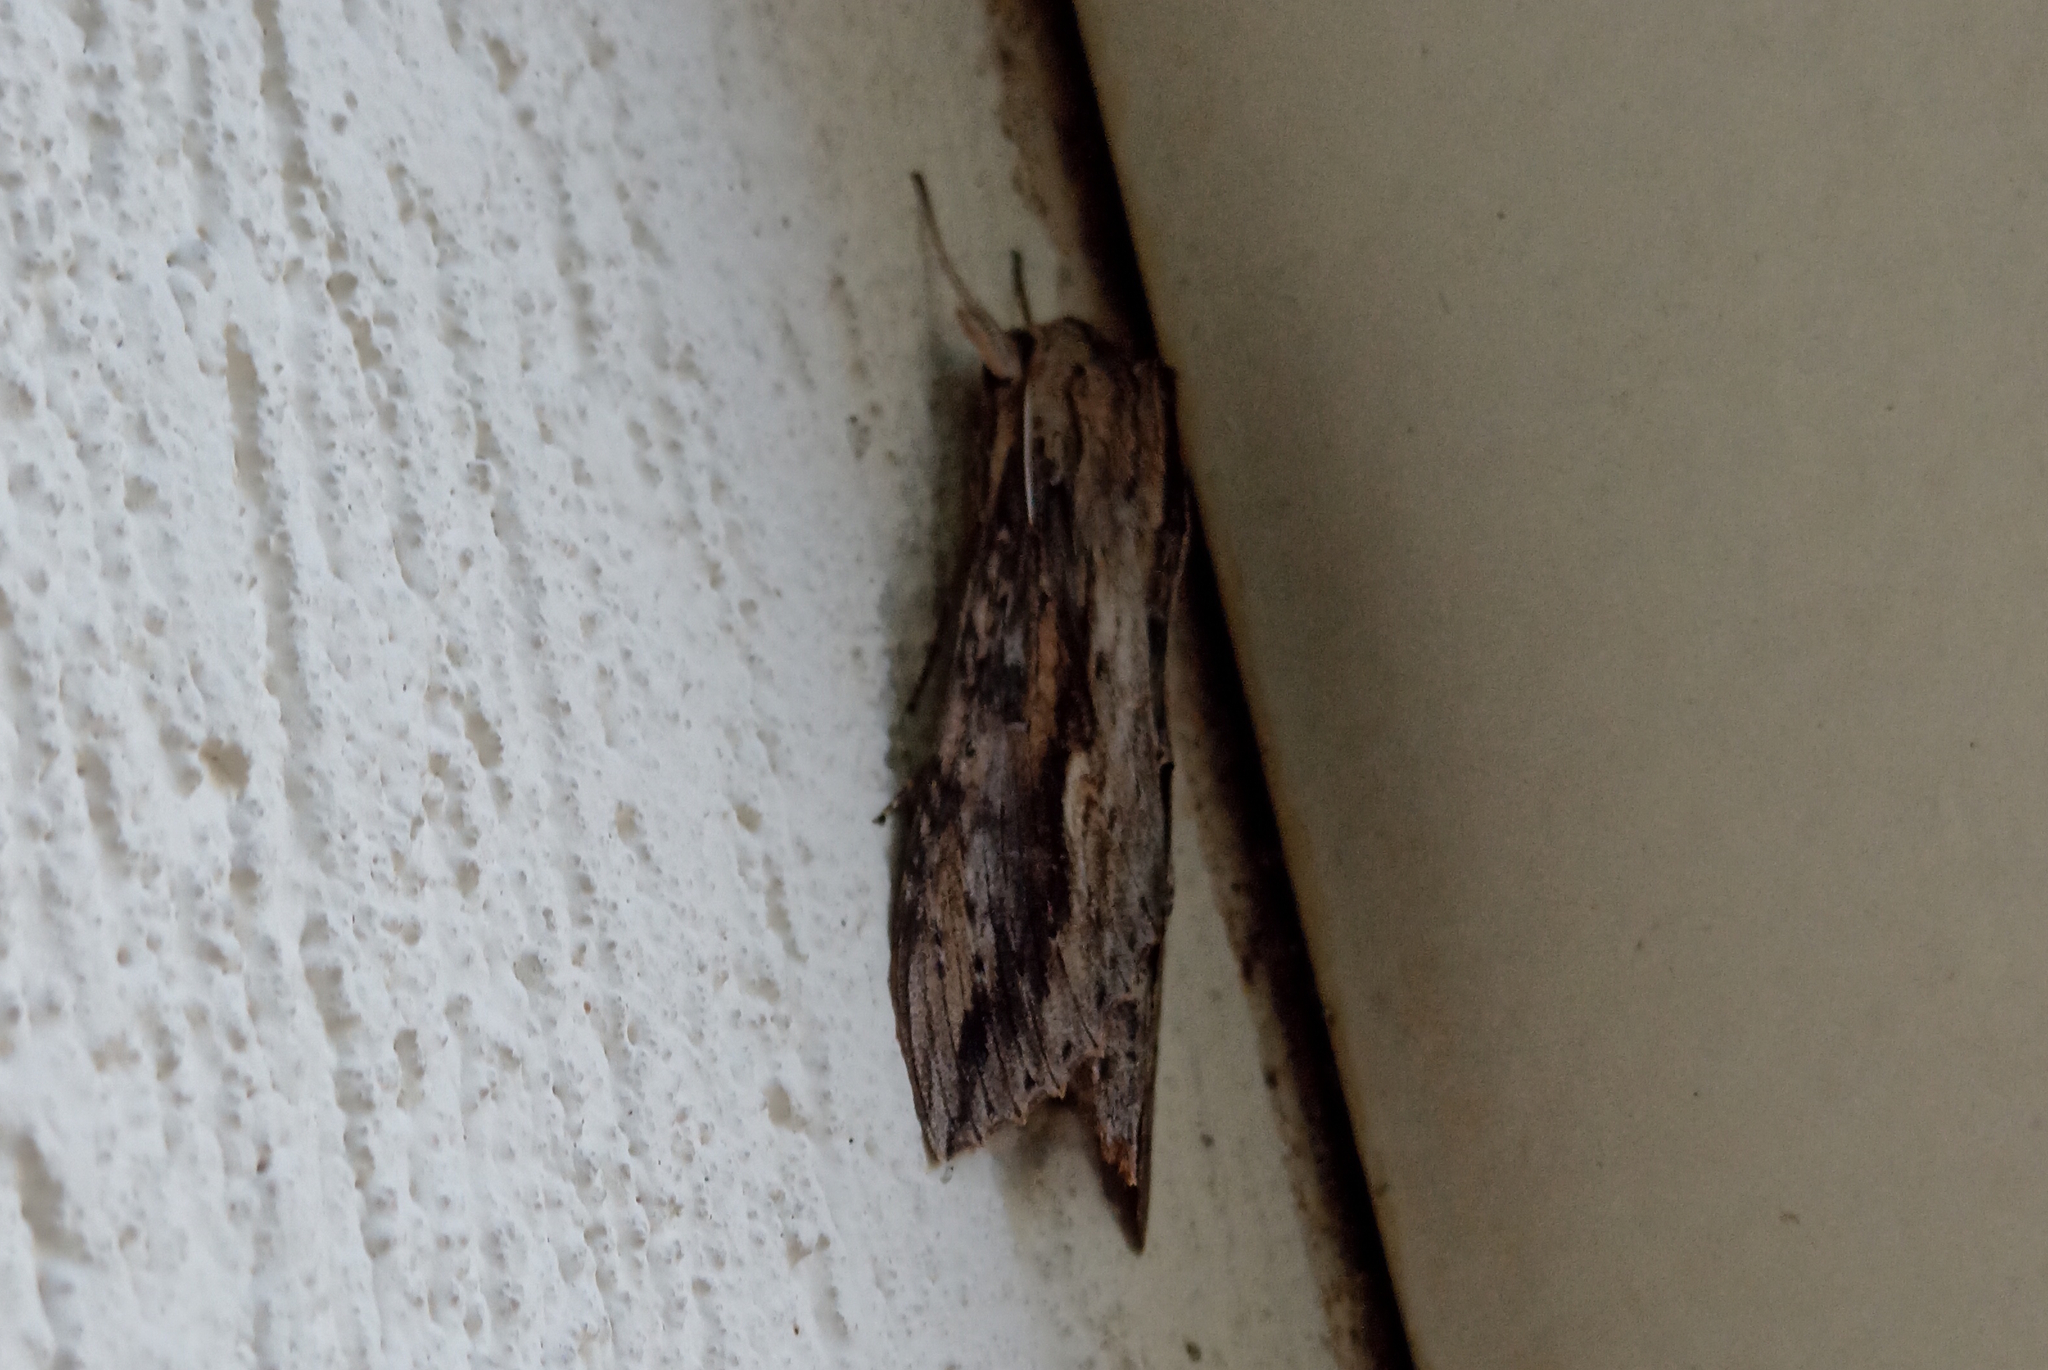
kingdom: Animalia
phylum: Arthropoda
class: Insecta
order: Lepidoptera
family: Sphingidae
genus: Erinnyis
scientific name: Erinnyis ello
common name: Ello sphinx
